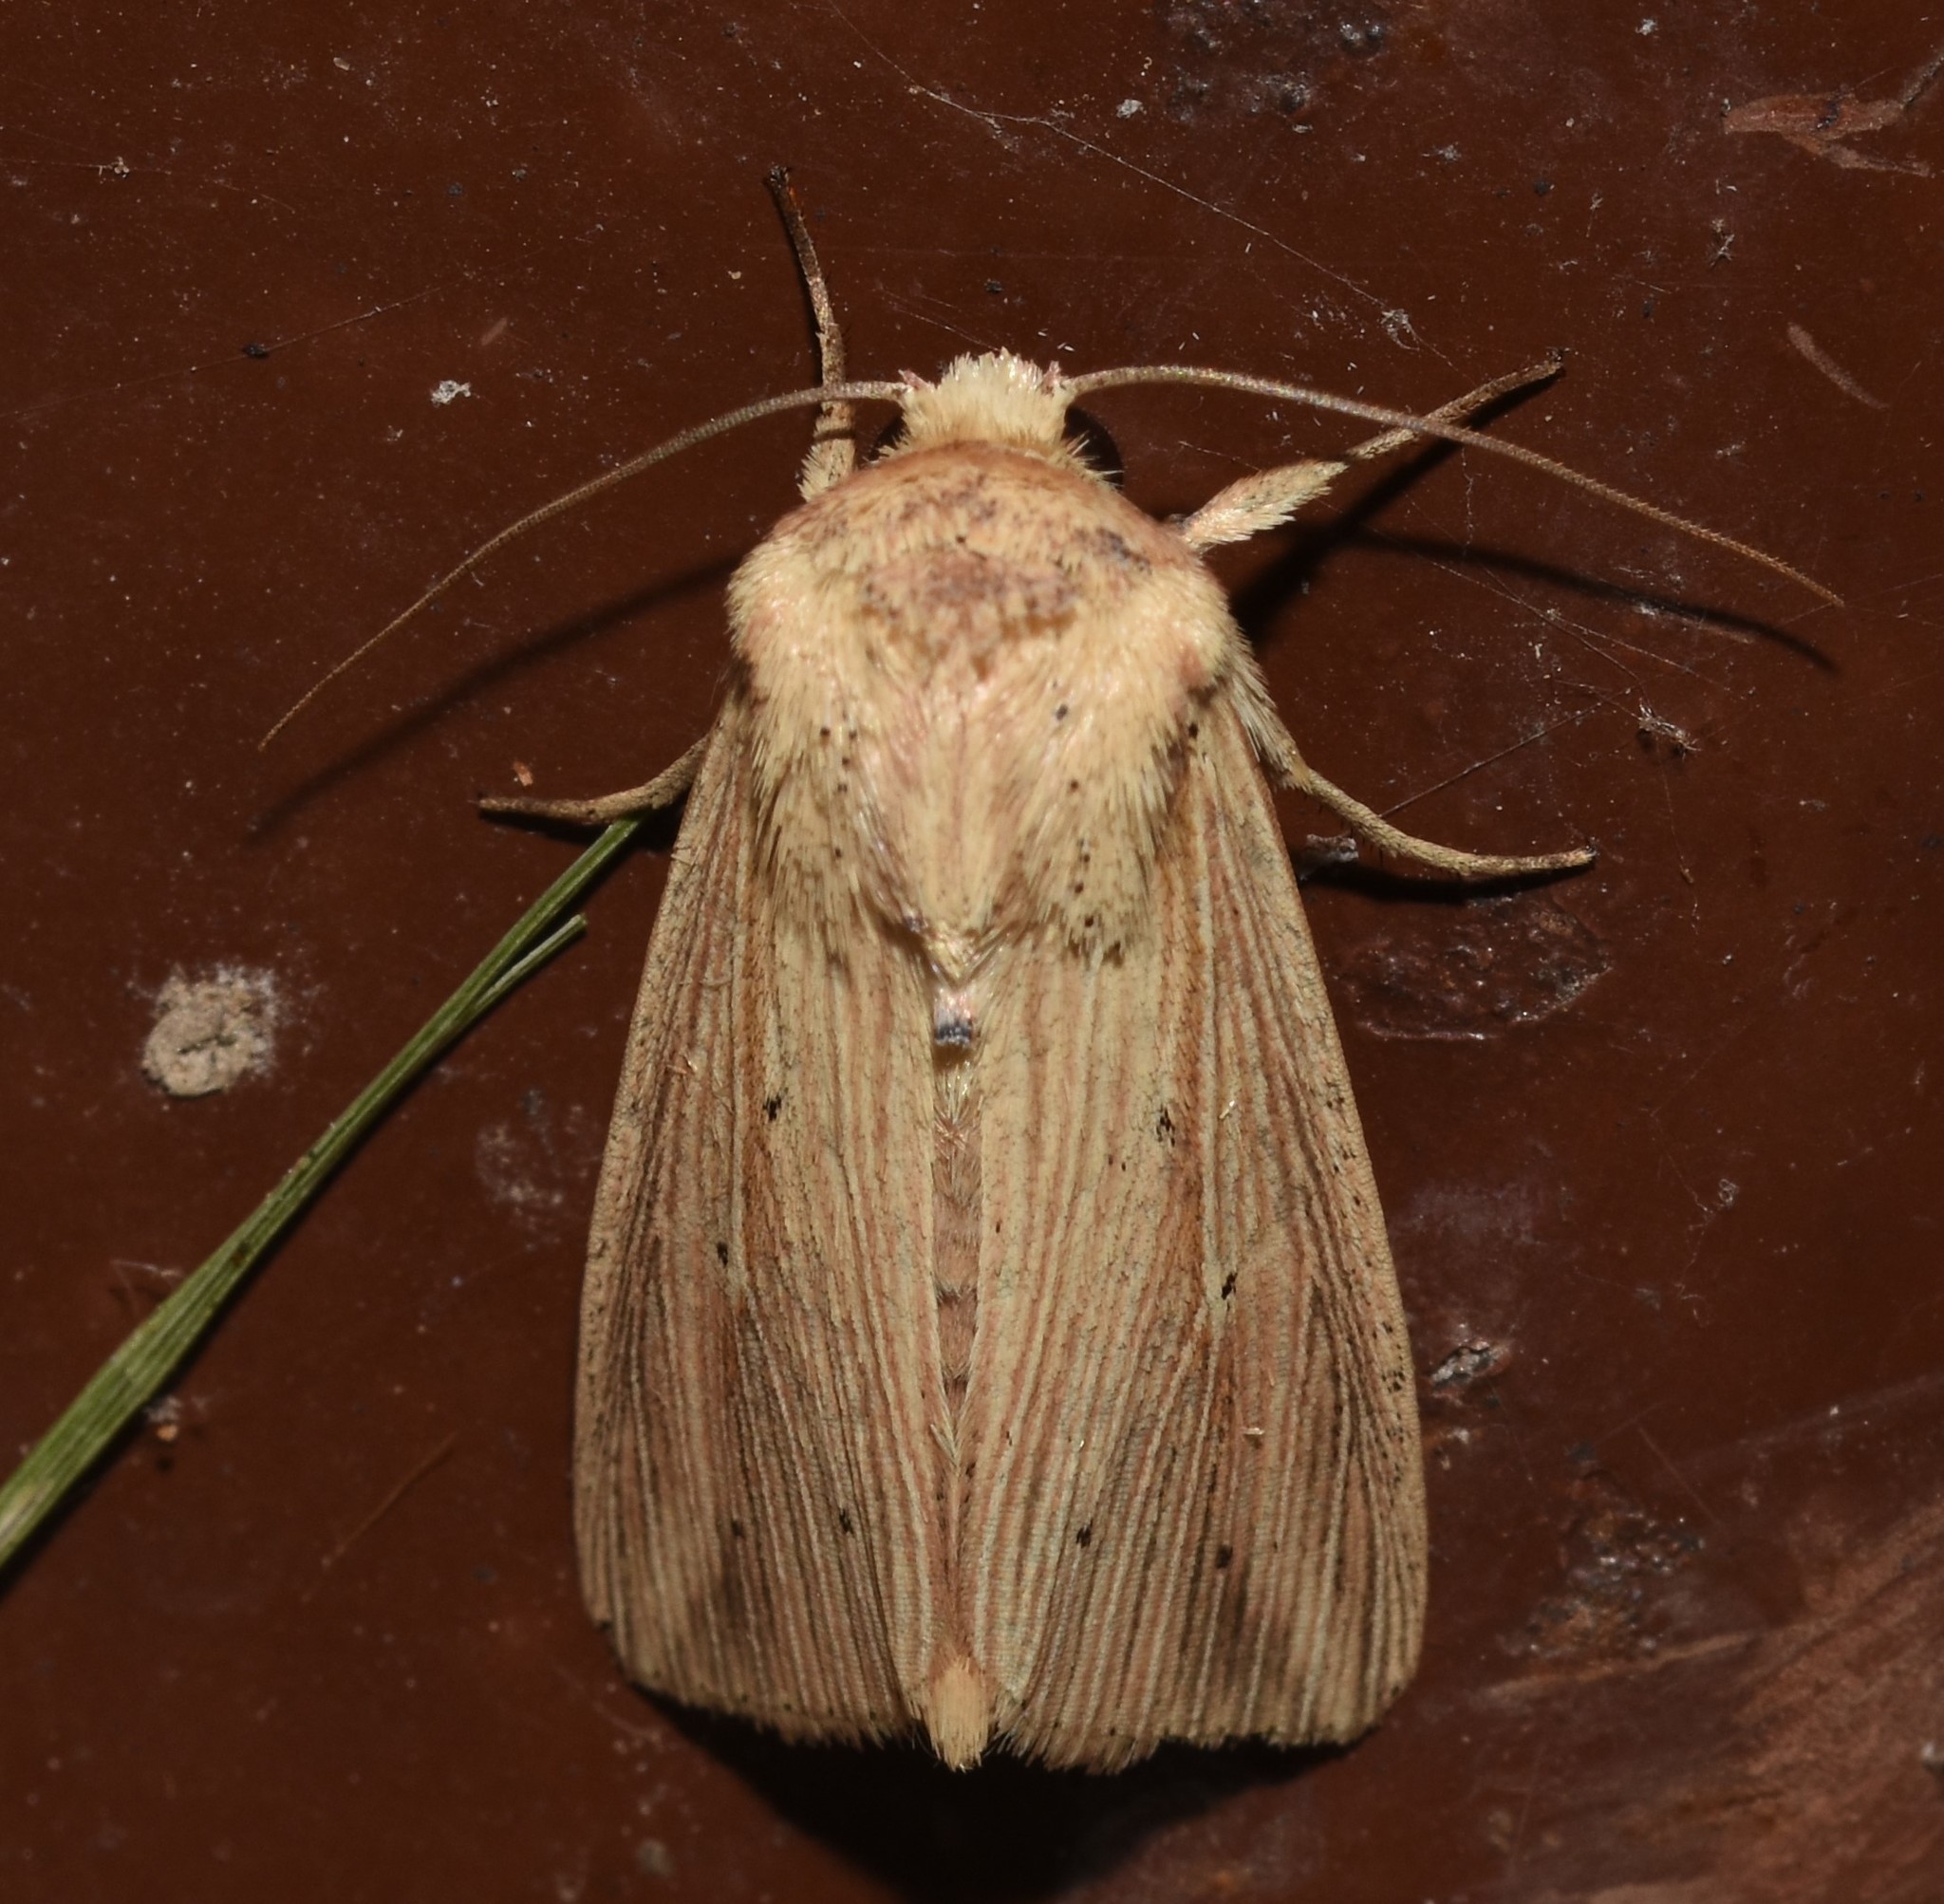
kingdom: Animalia
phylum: Arthropoda
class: Insecta
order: Lepidoptera
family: Noctuidae
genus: Leucania
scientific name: Leucania adjuta
